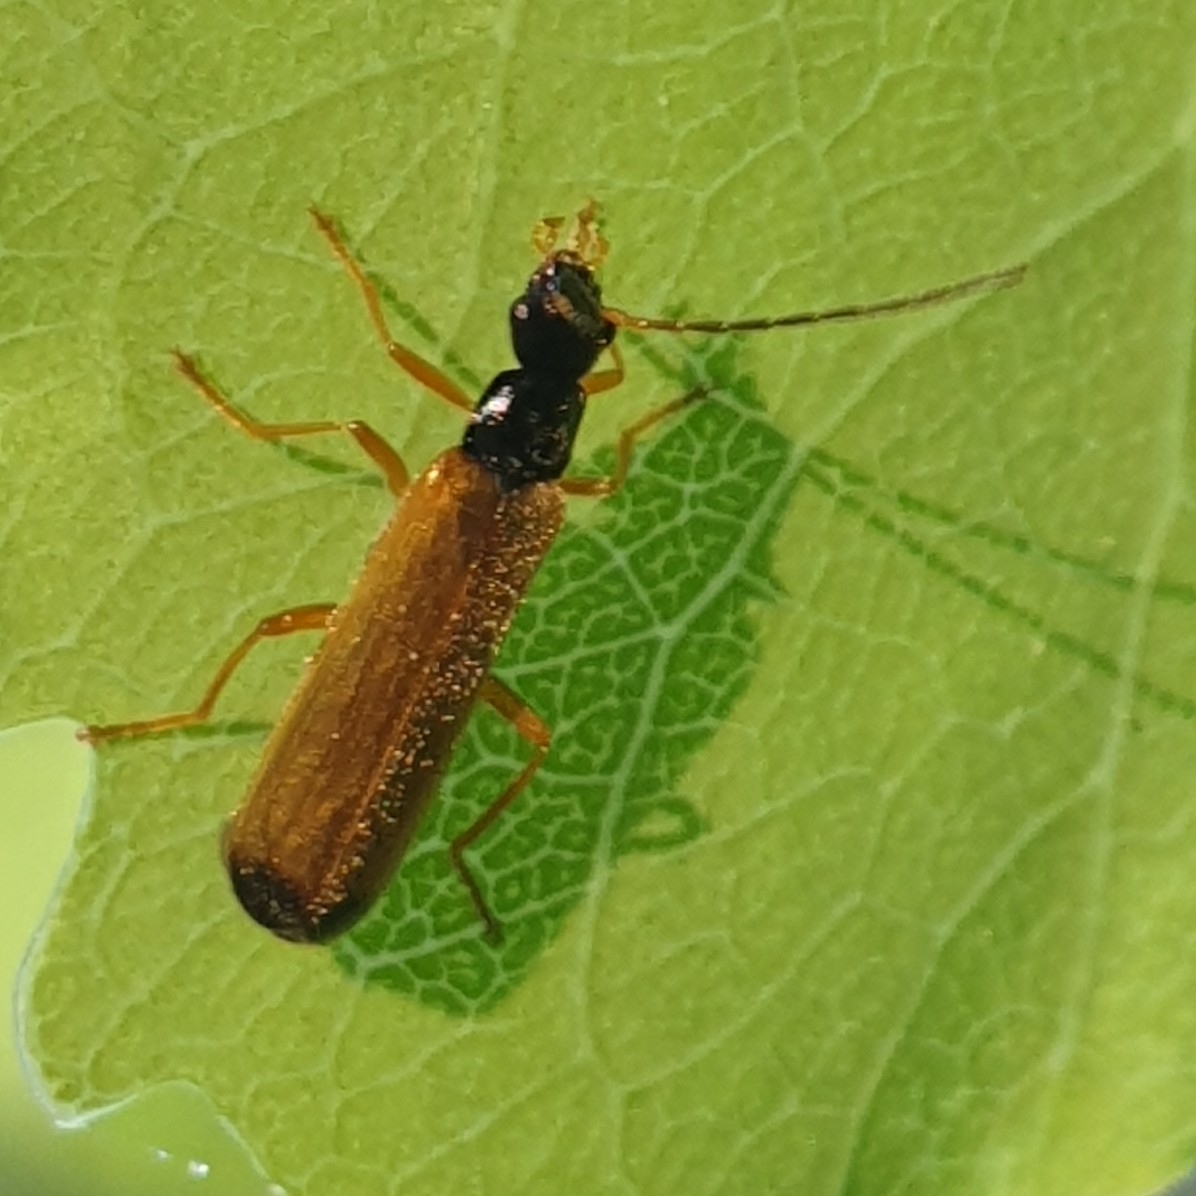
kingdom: Animalia
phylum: Arthropoda
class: Insecta
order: Coleoptera
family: Cantharidae
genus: Rhagonycha
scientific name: Rhagonycha lignosa
